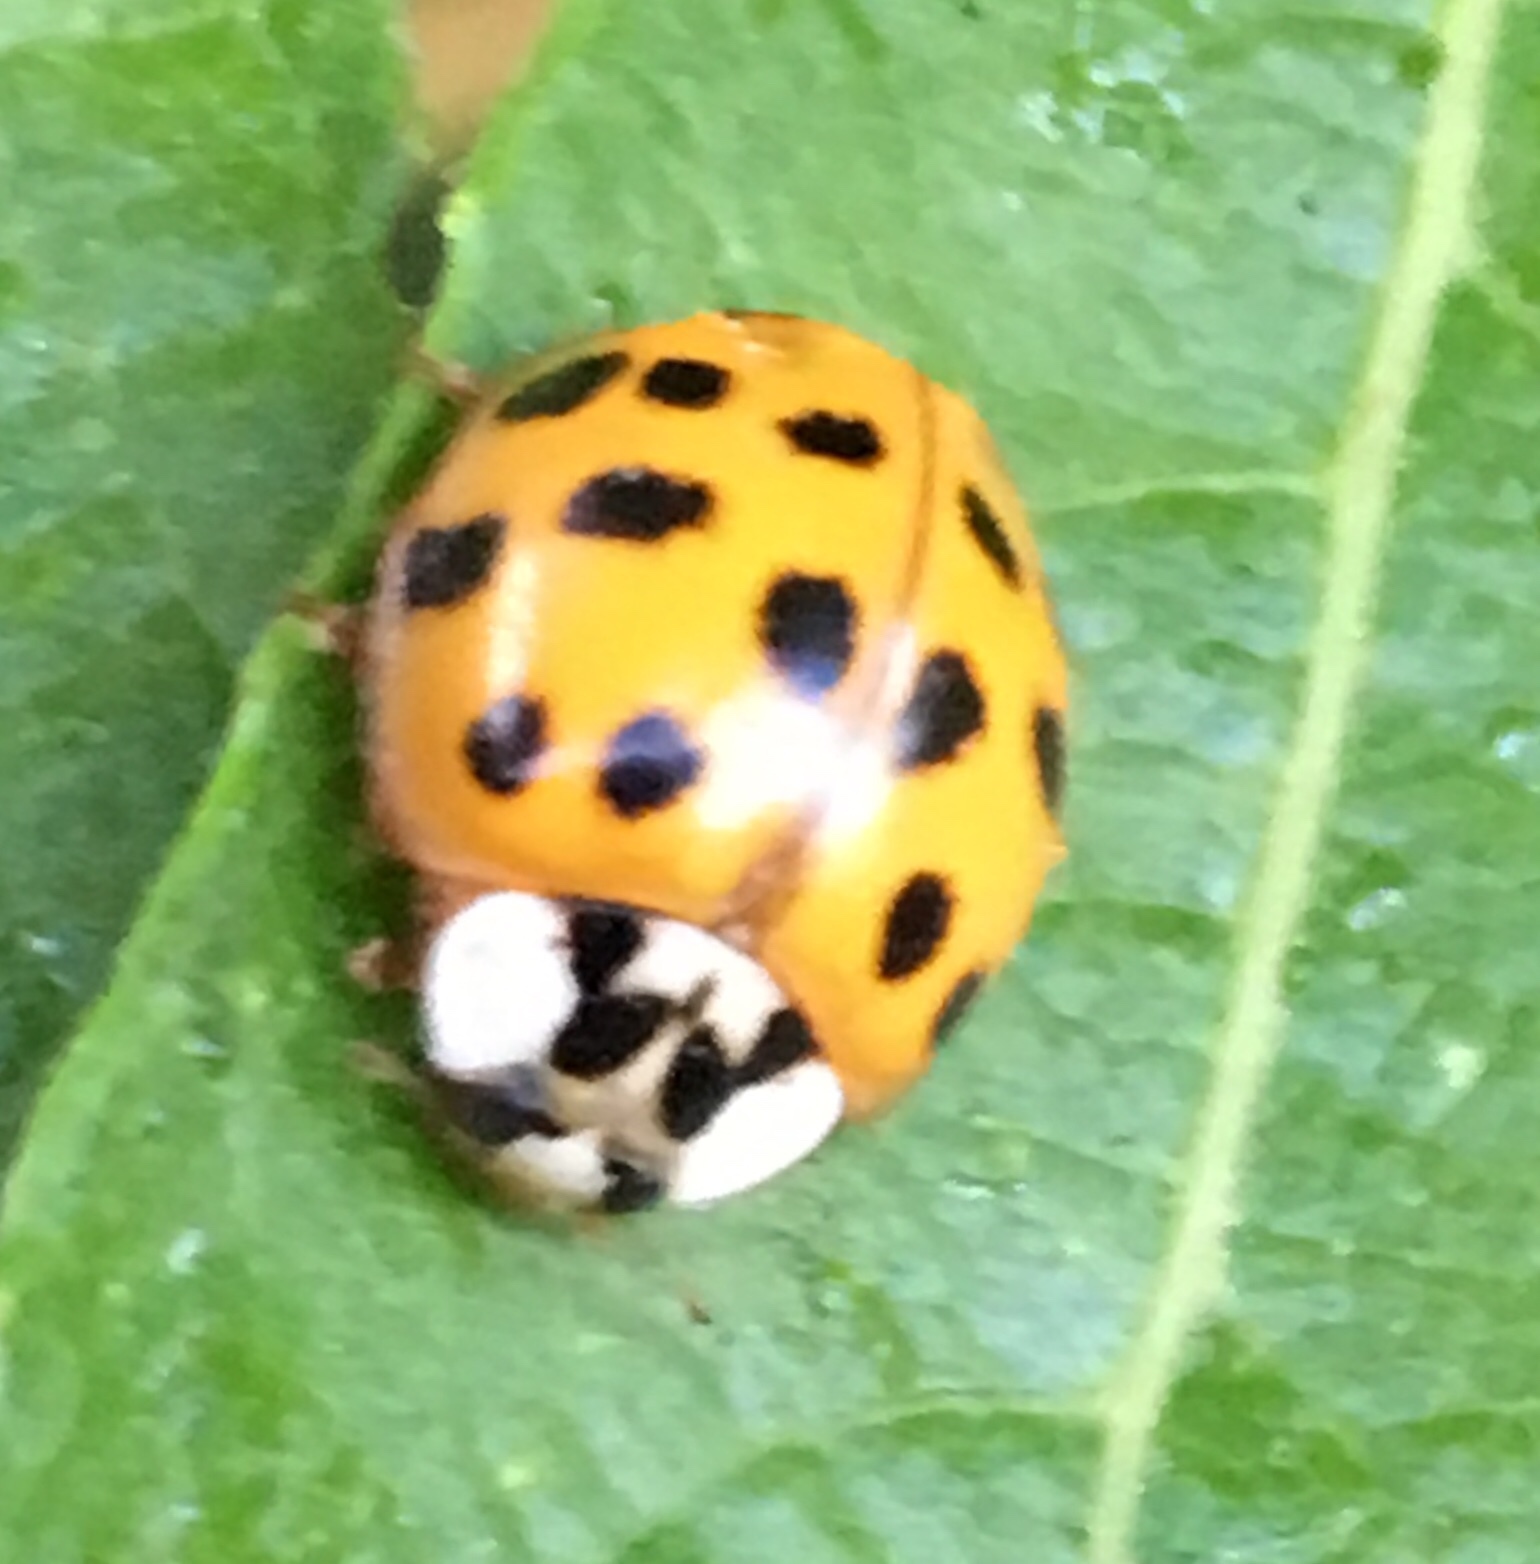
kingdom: Animalia
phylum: Arthropoda
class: Insecta
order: Coleoptera
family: Coccinellidae
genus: Harmonia
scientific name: Harmonia axyridis
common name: Harlequin ladybird
